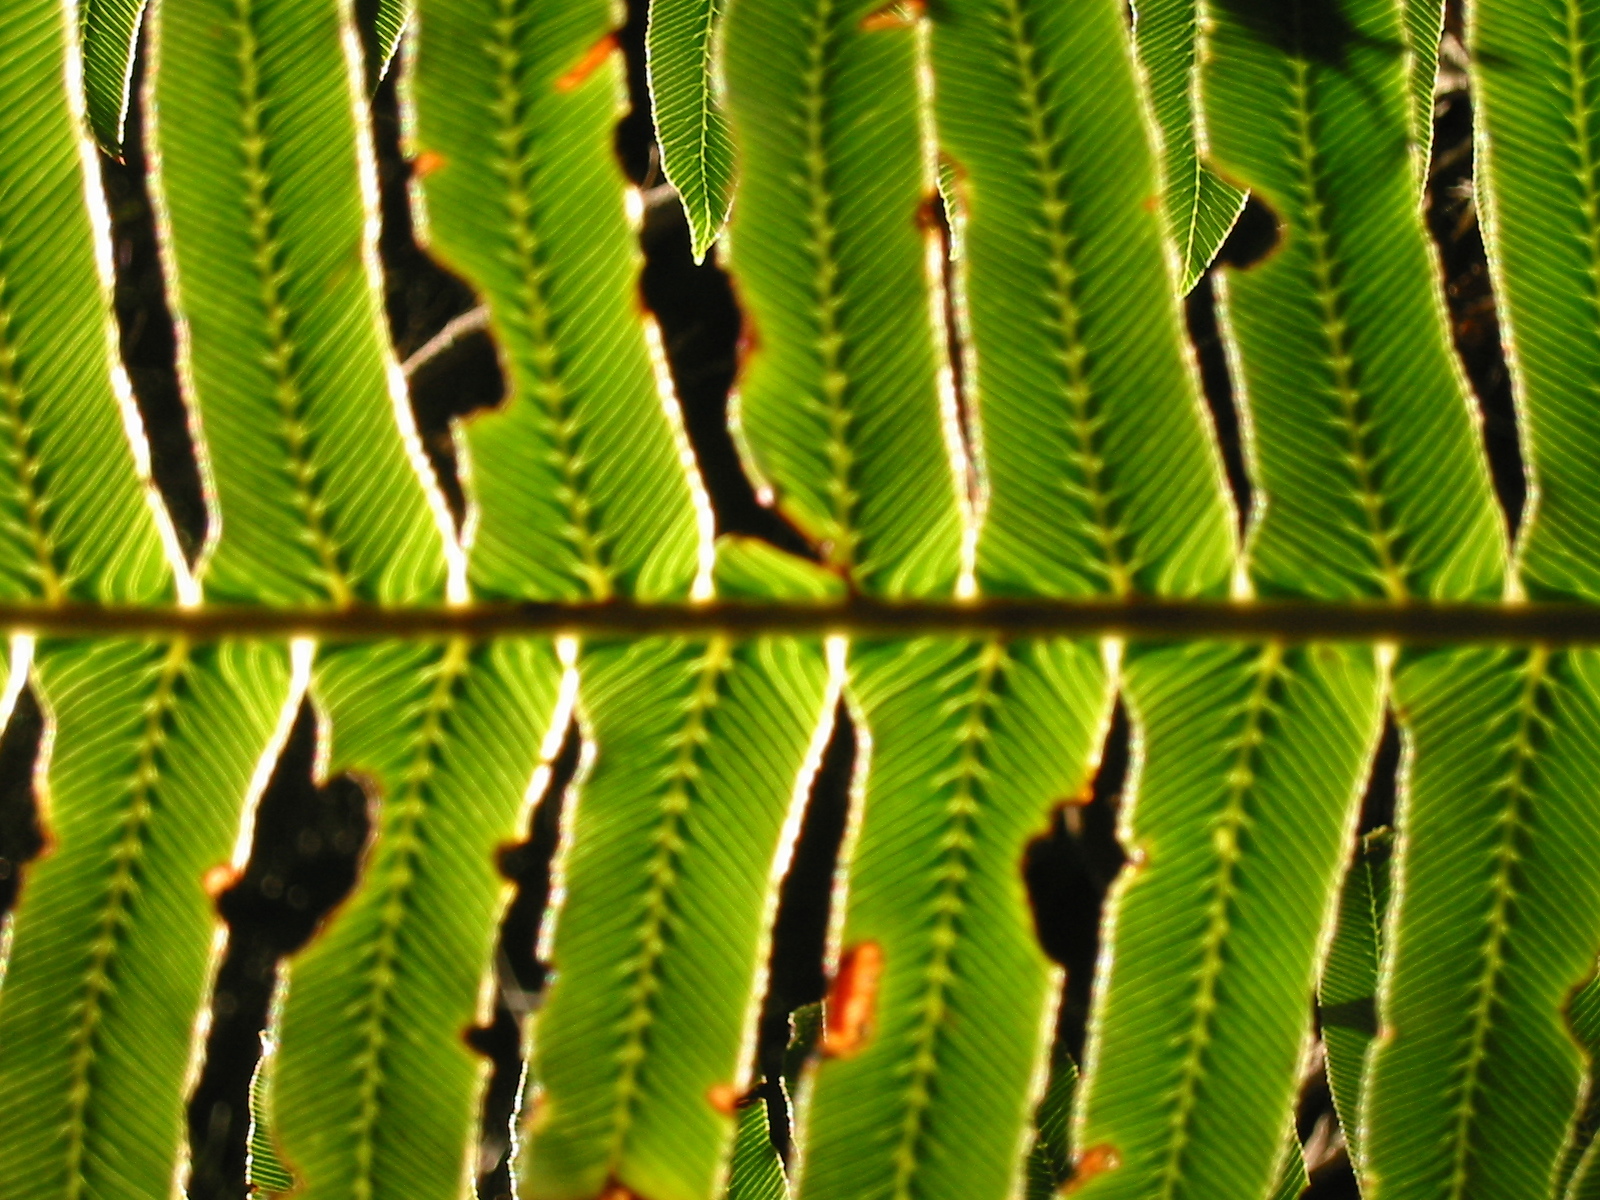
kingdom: Plantae
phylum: Tracheophyta
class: Polypodiopsida
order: Polypodiales
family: Blechnaceae
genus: Lomaria
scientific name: Lomaria discolor
